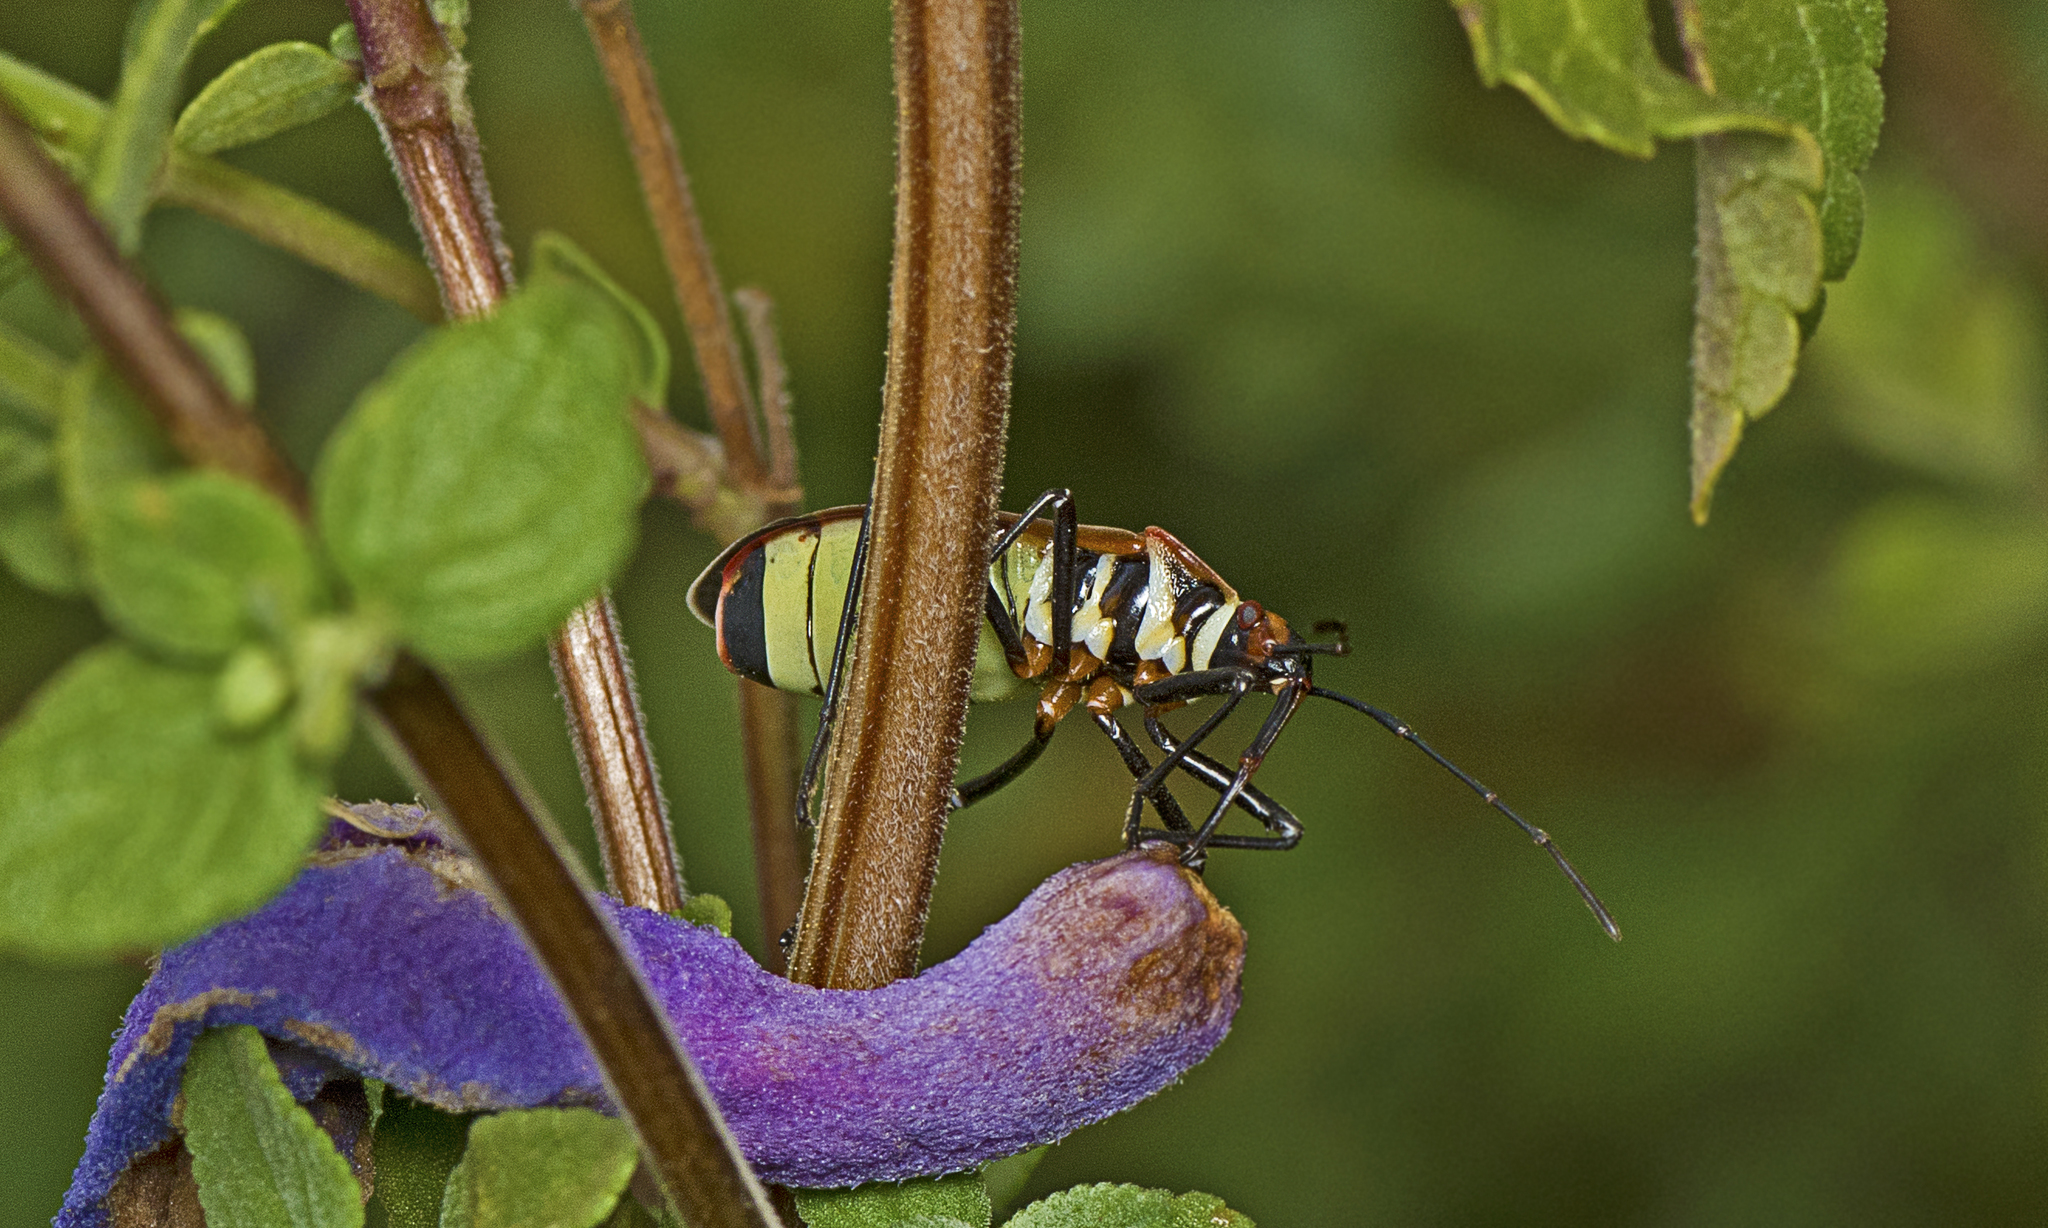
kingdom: Animalia
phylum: Arthropoda
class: Insecta
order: Hemiptera
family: Pyrrhocoridae
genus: Dysdercus
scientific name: Dysdercus sidae
